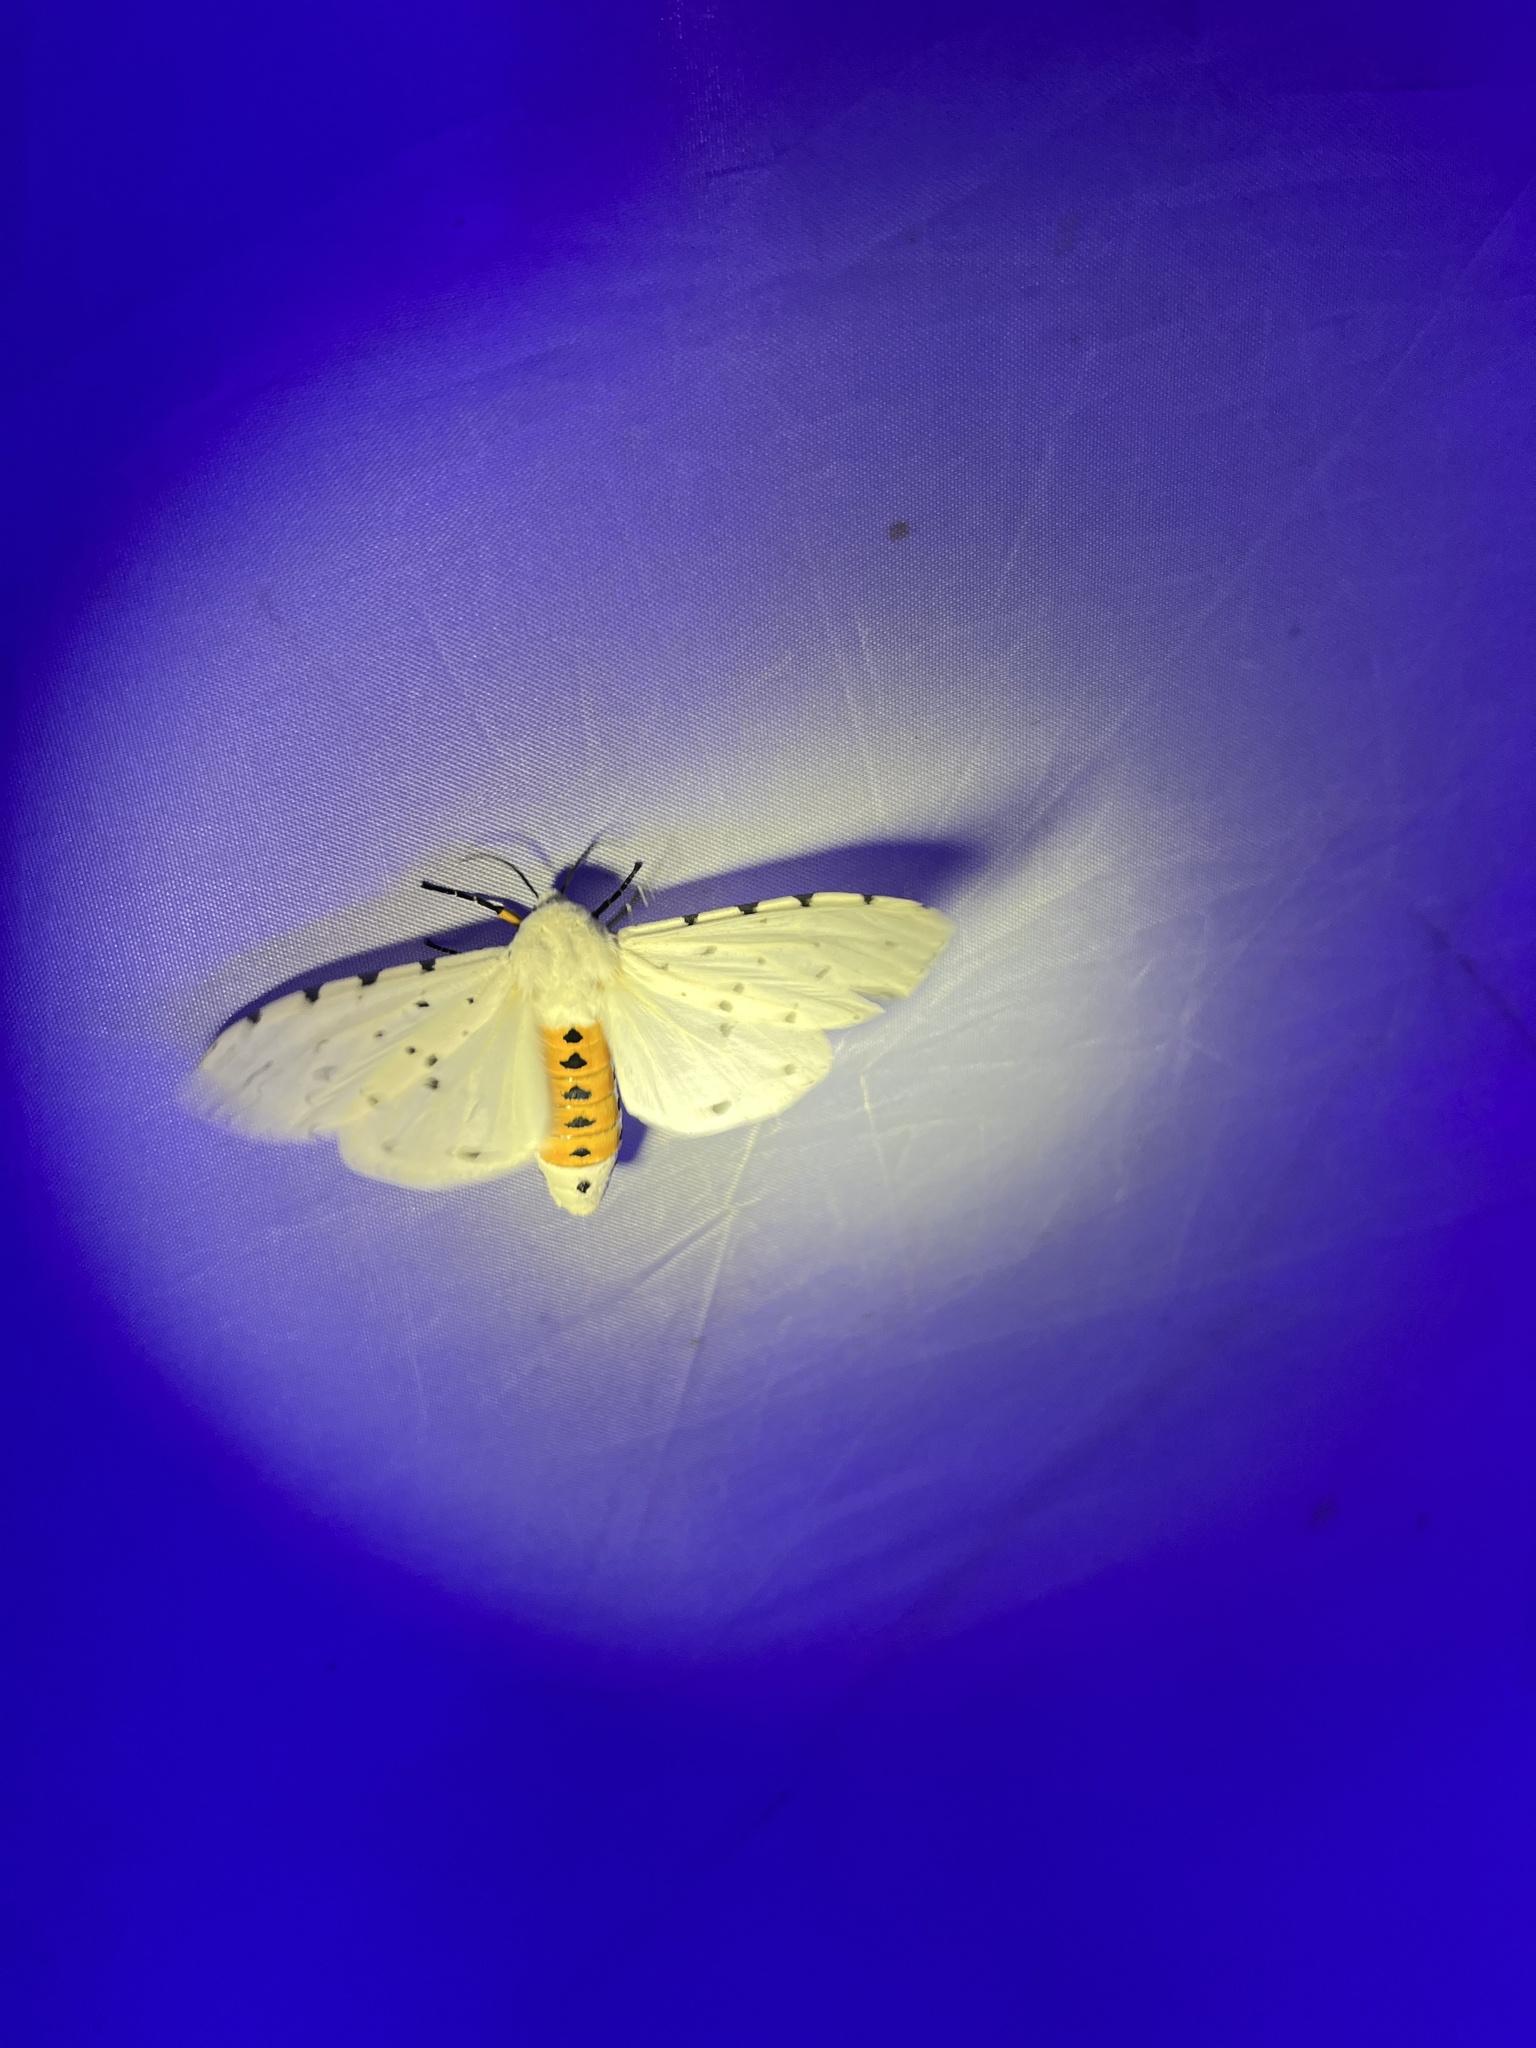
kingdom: Animalia
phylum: Arthropoda
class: Insecta
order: Lepidoptera
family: Erebidae
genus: Estigmene
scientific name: Estigmene acrea
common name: Salt marsh moth
